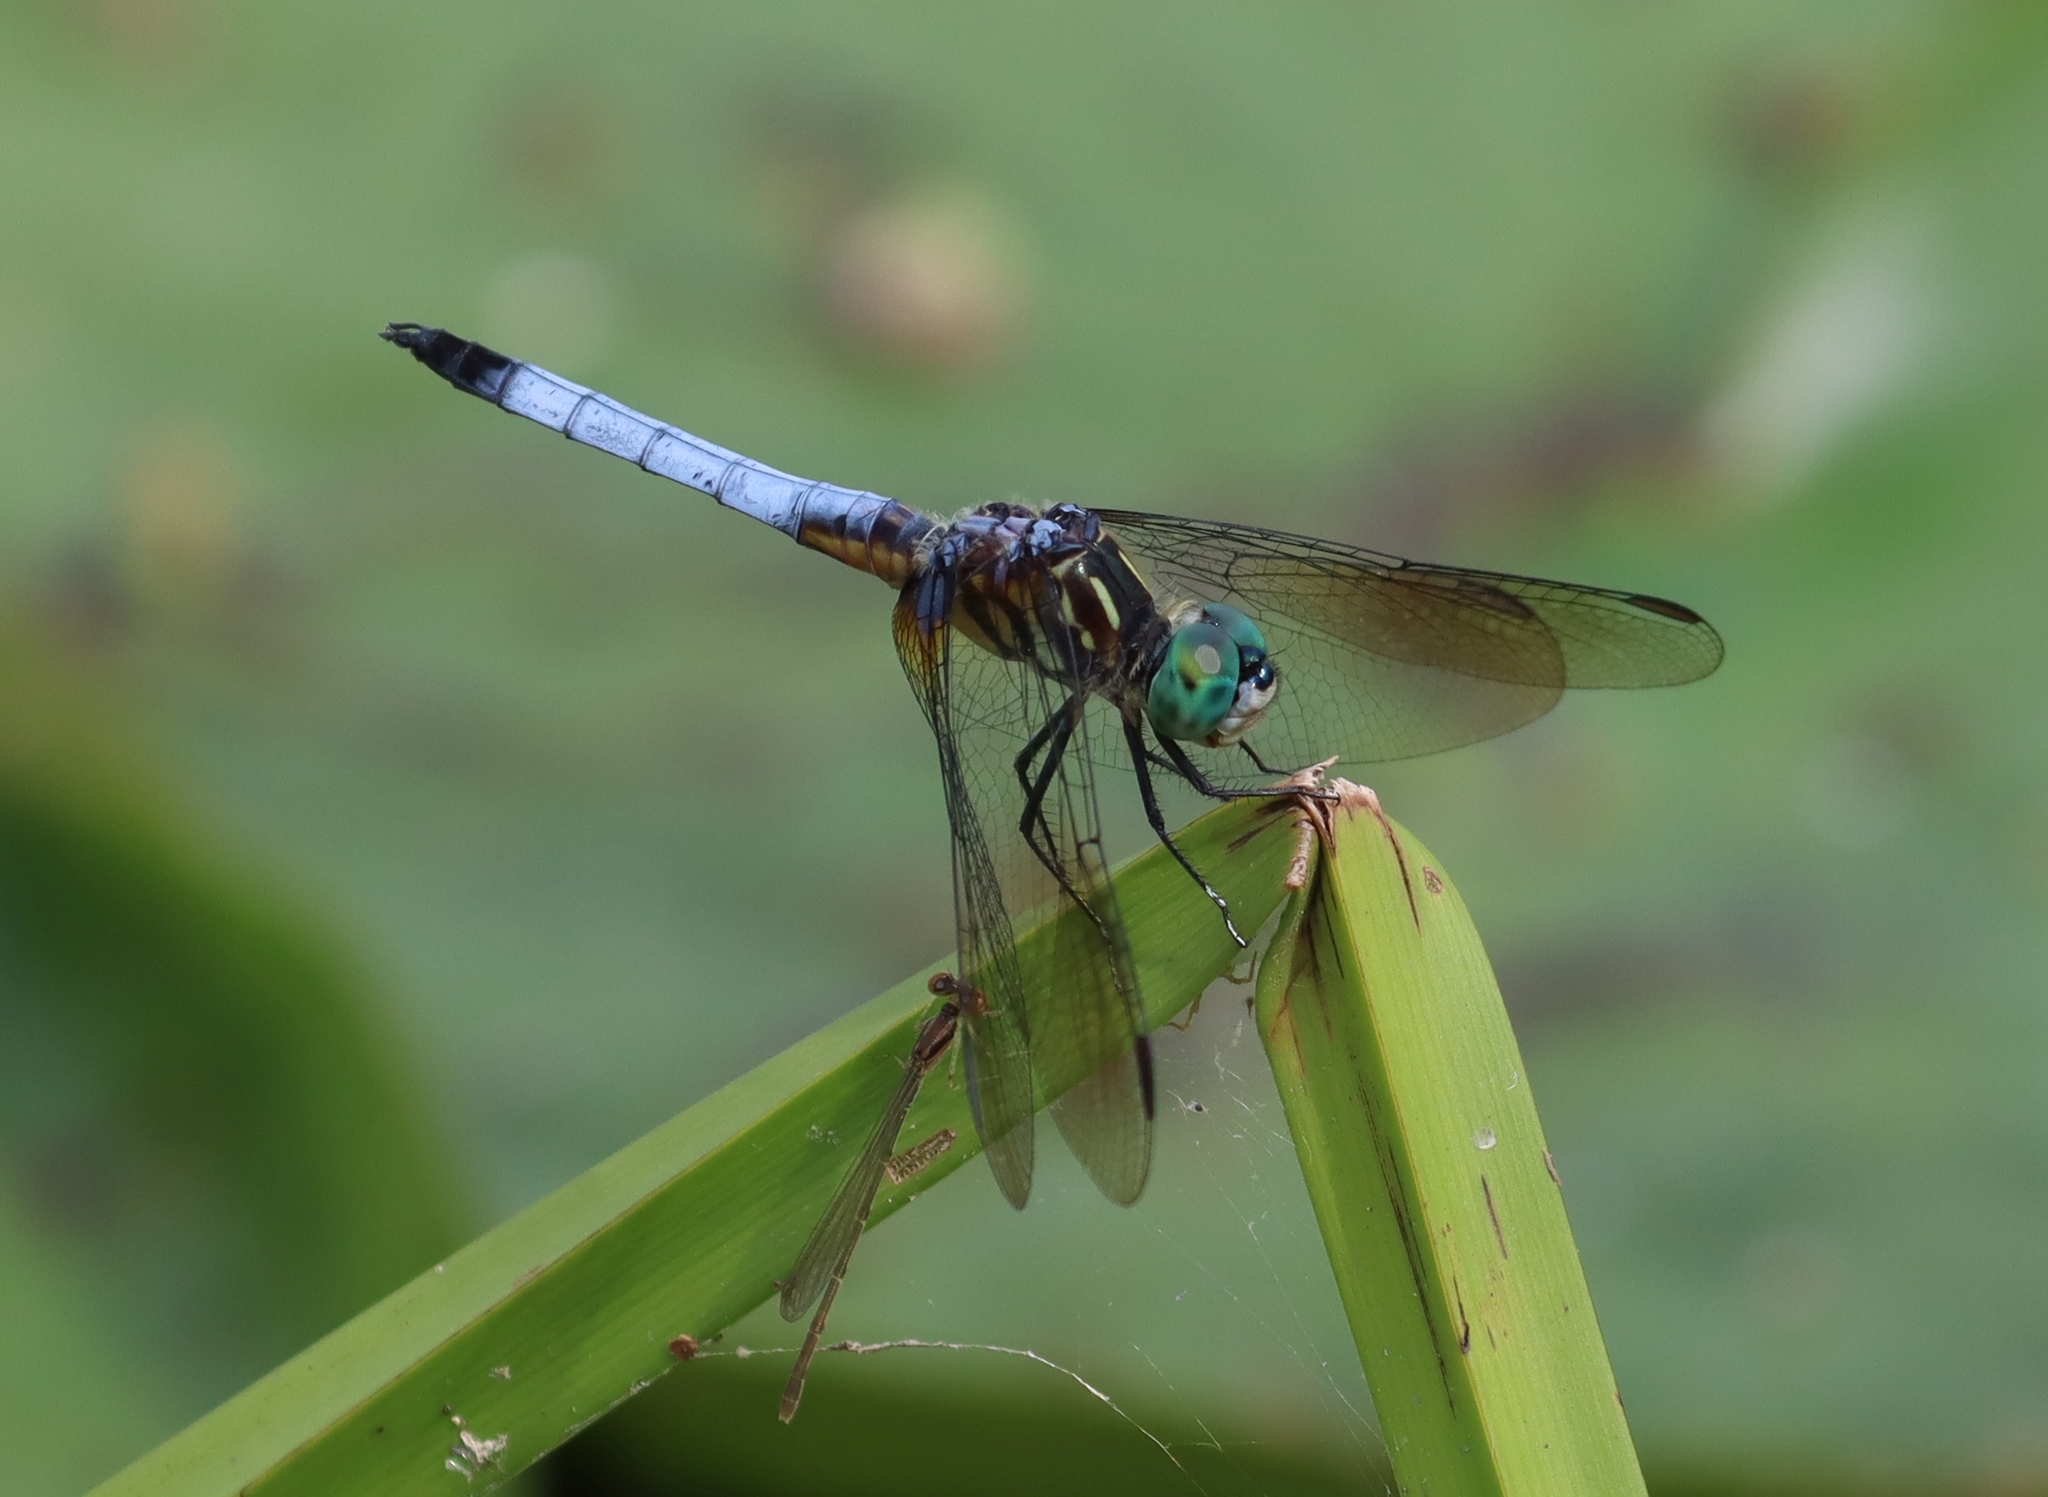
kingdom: Animalia
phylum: Arthropoda
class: Insecta
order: Odonata
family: Libellulidae
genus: Pachydiplax
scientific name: Pachydiplax longipennis
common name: Blue dasher
